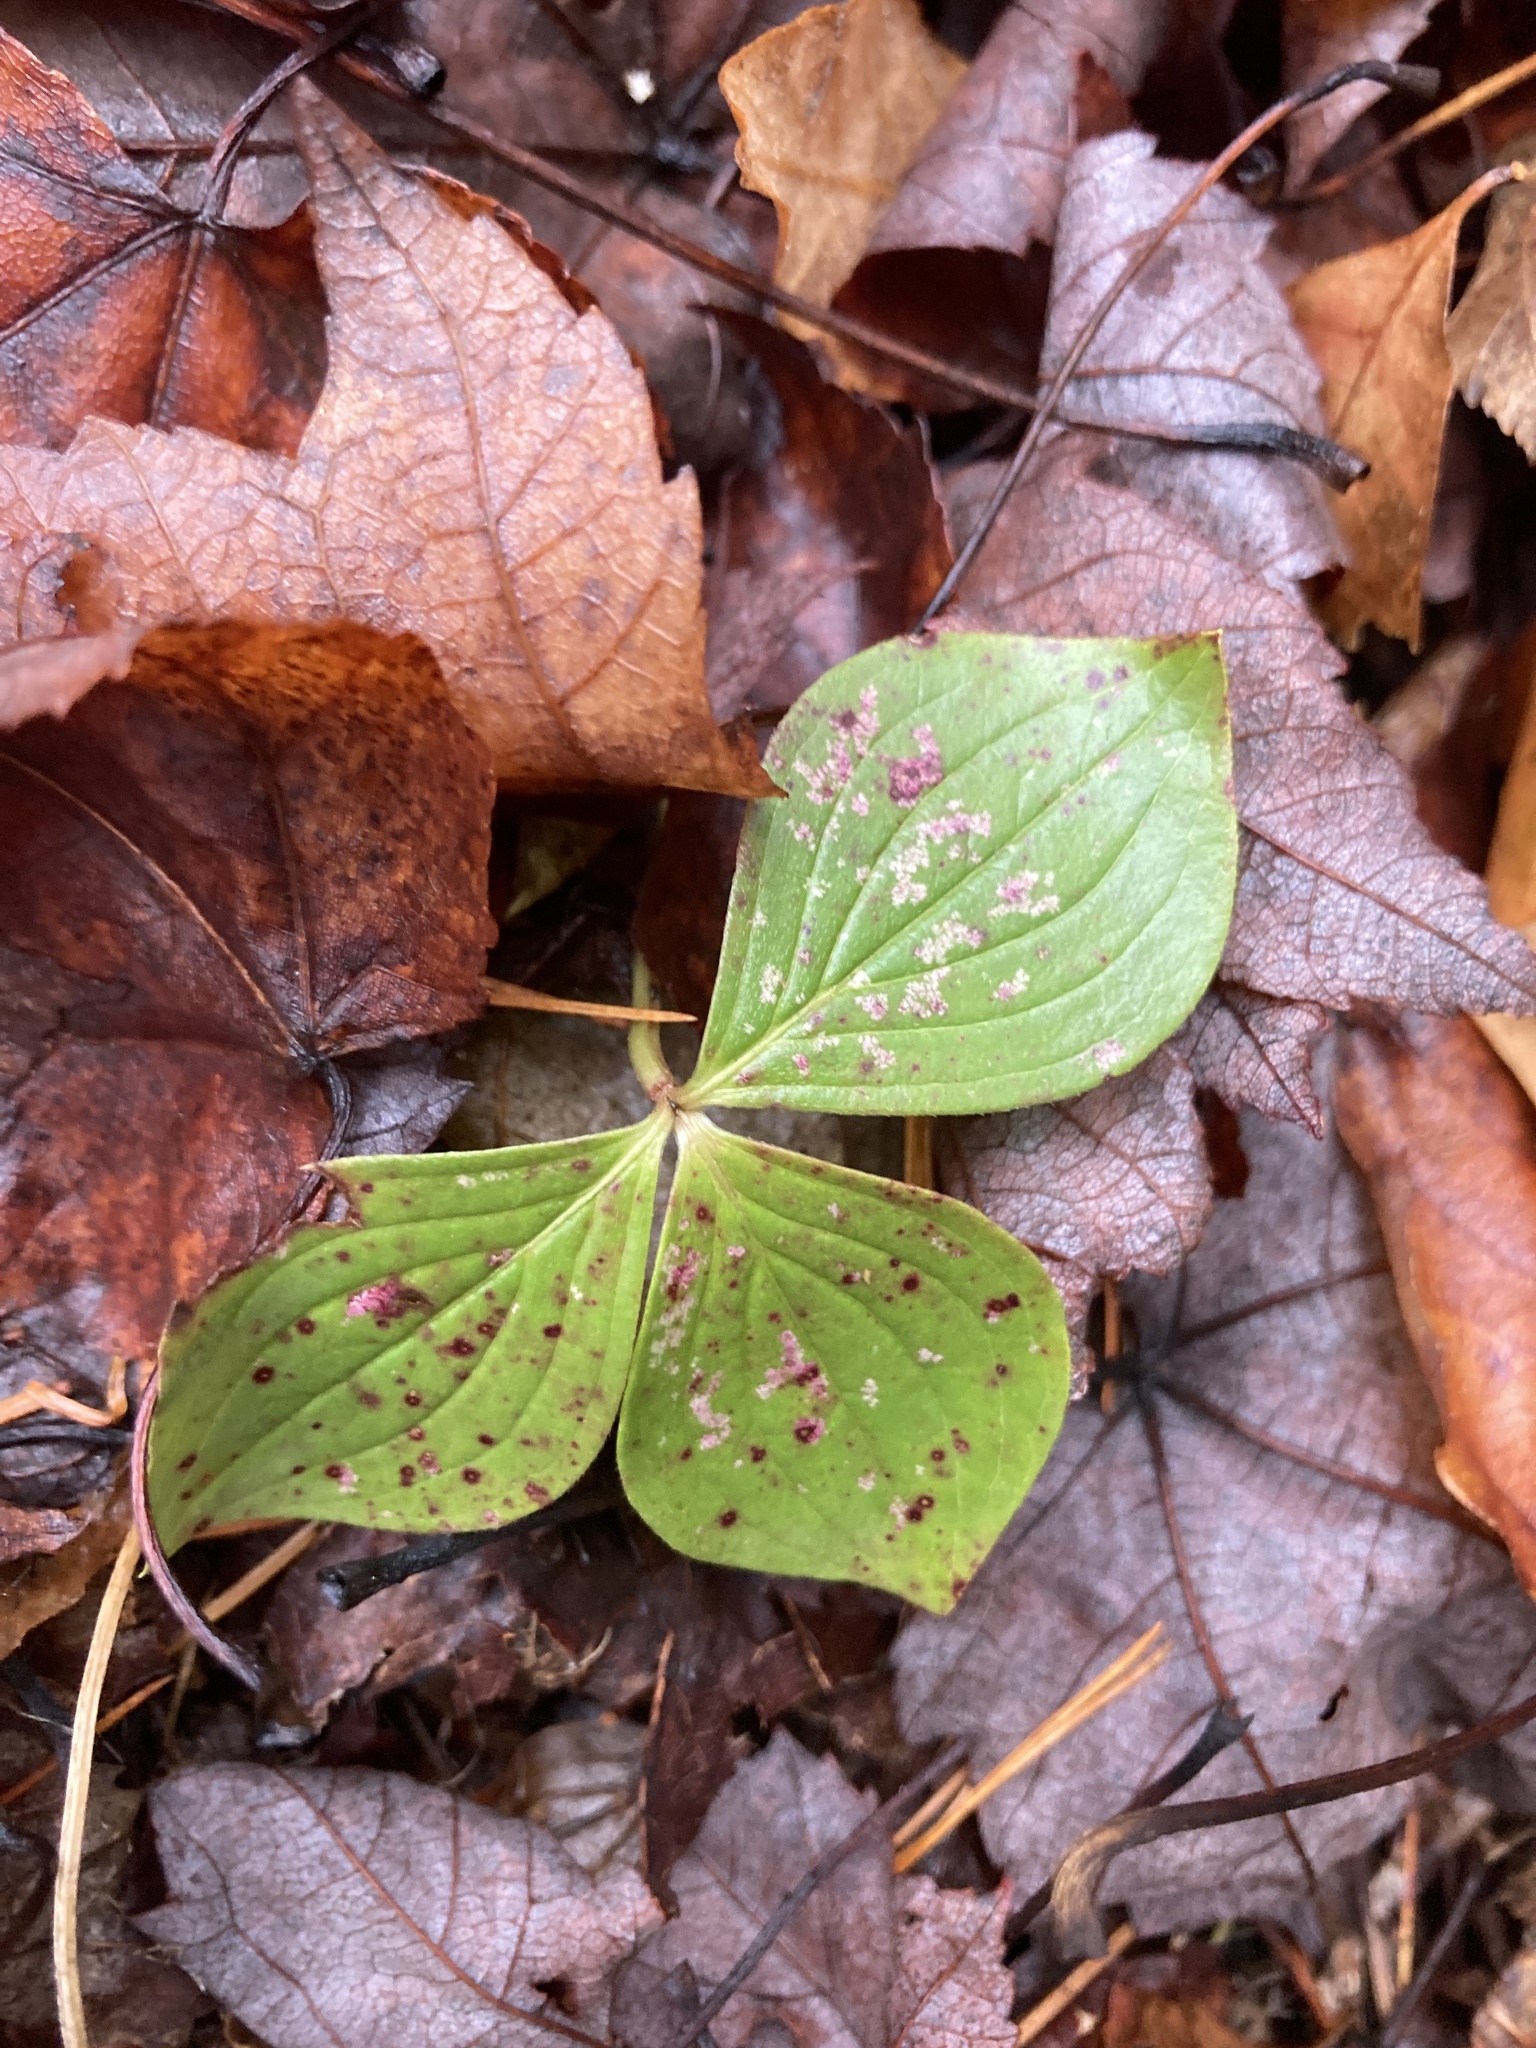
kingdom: Plantae
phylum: Tracheophyta
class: Magnoliopsida
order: Cornales
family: Cornaceae
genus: Cornus
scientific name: Cornus canadensis
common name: Creeping dogwood
